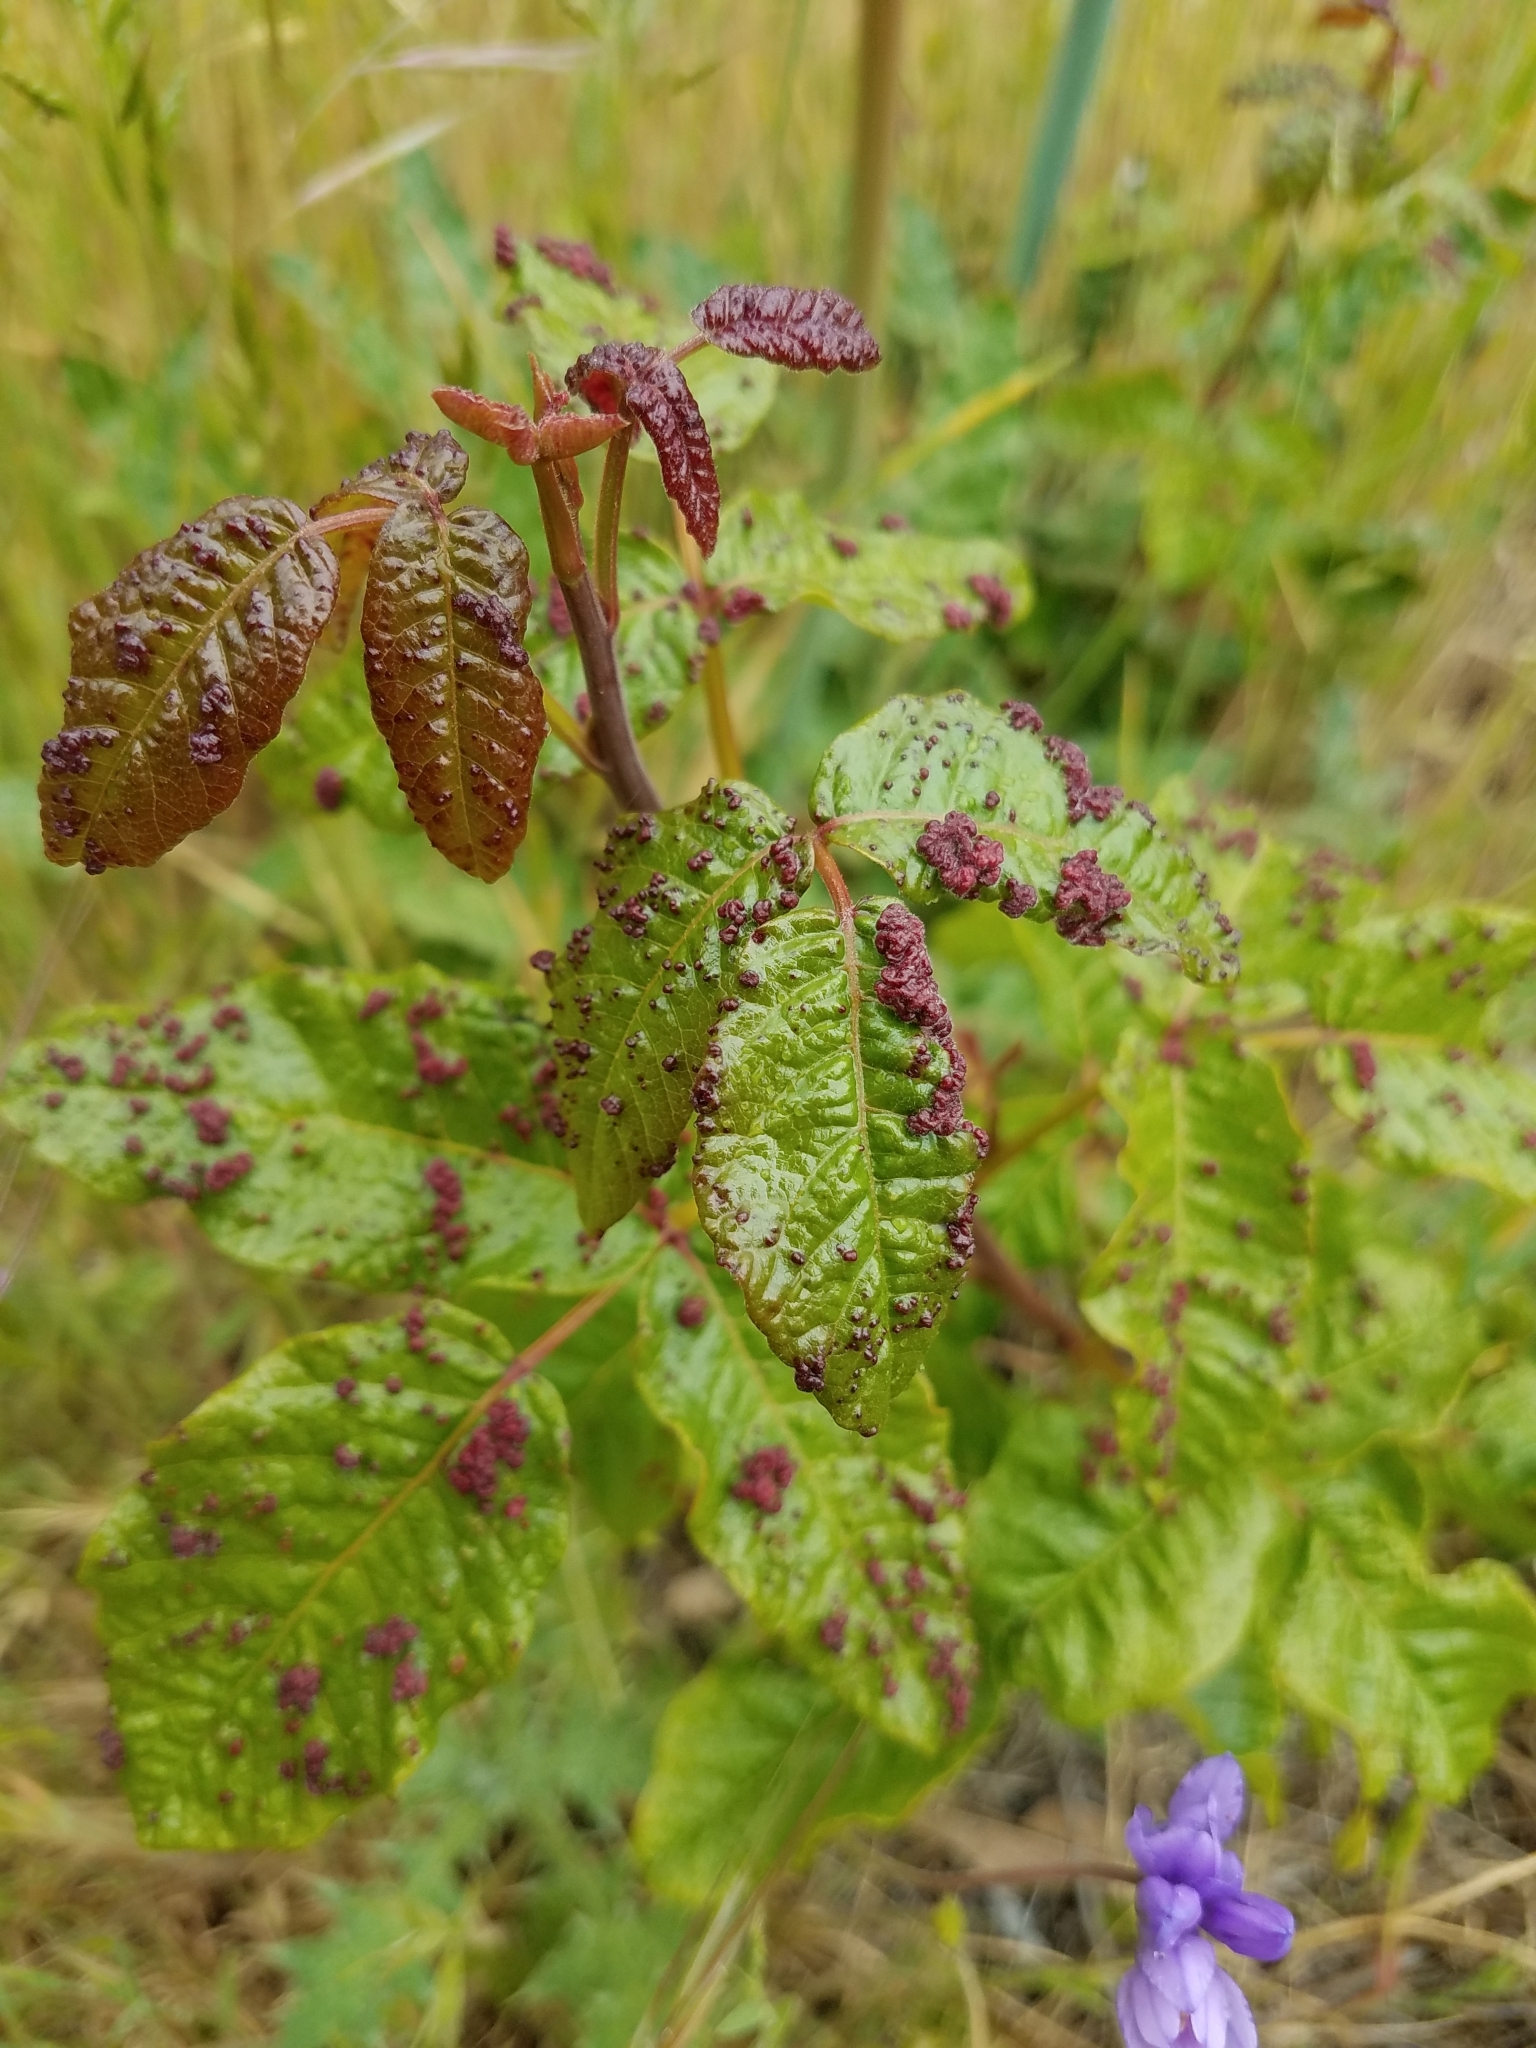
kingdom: Animalia
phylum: Arthropoda
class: Arachnida
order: Trombidiformes
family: Eriophyidae
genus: Aculops
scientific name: Aculops
